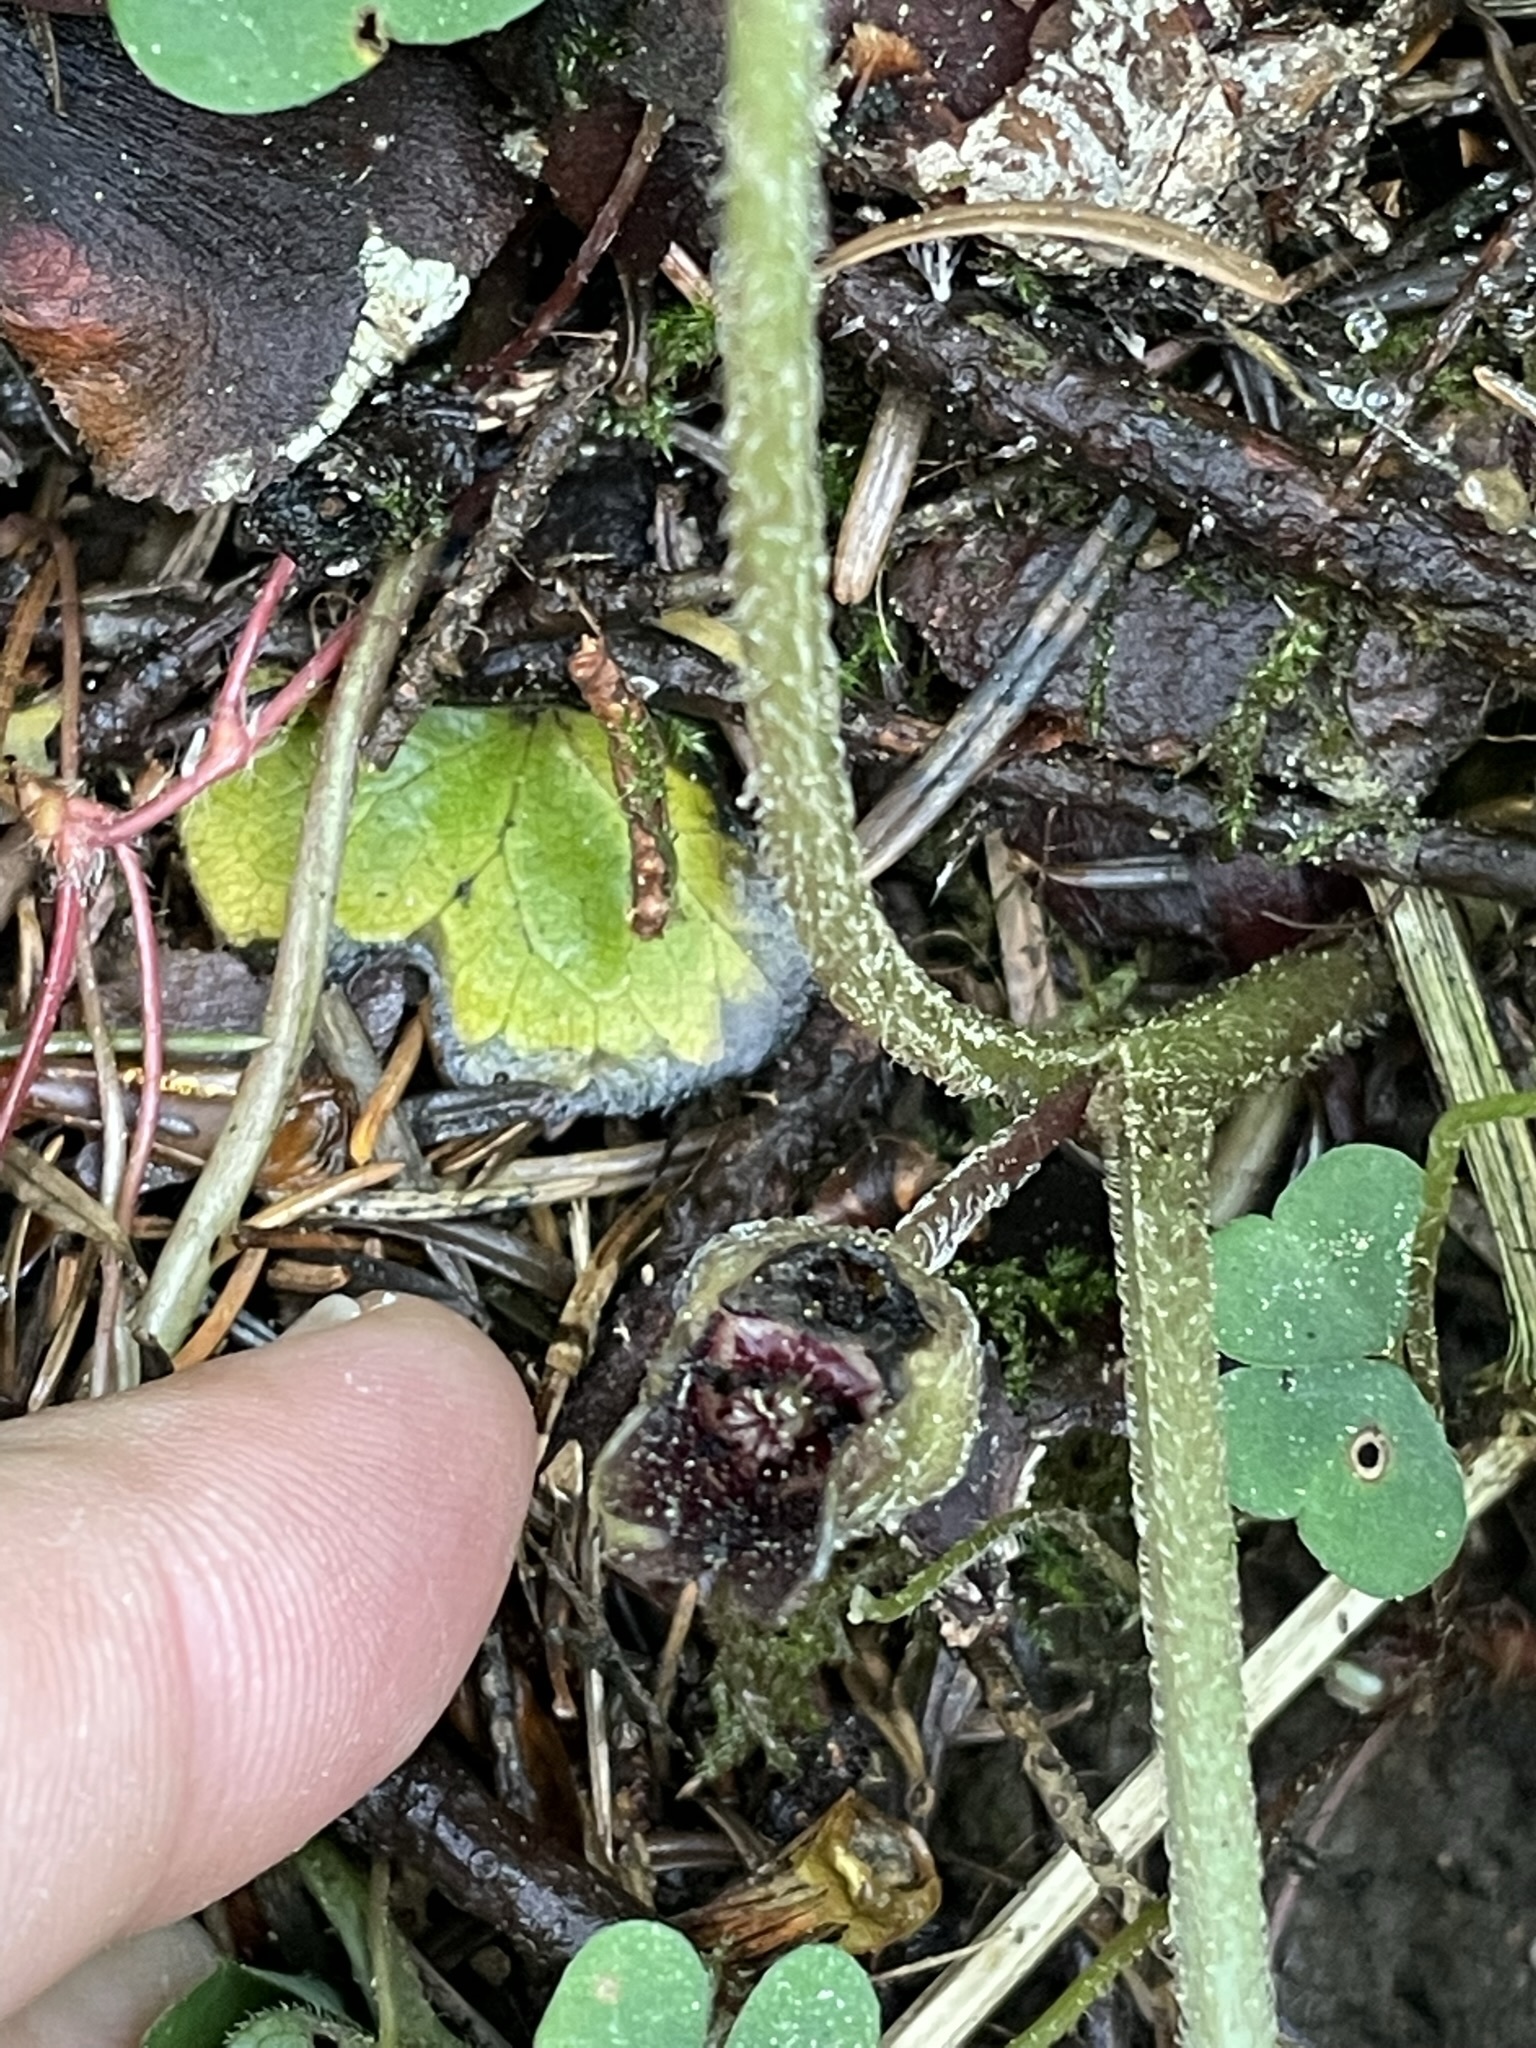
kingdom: Plantae
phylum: Tracheophyta
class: Magnoliopsida
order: Piperales
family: Aristolochiaceae
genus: Asarum
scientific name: Asarum europaeum
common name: Asarabacca
